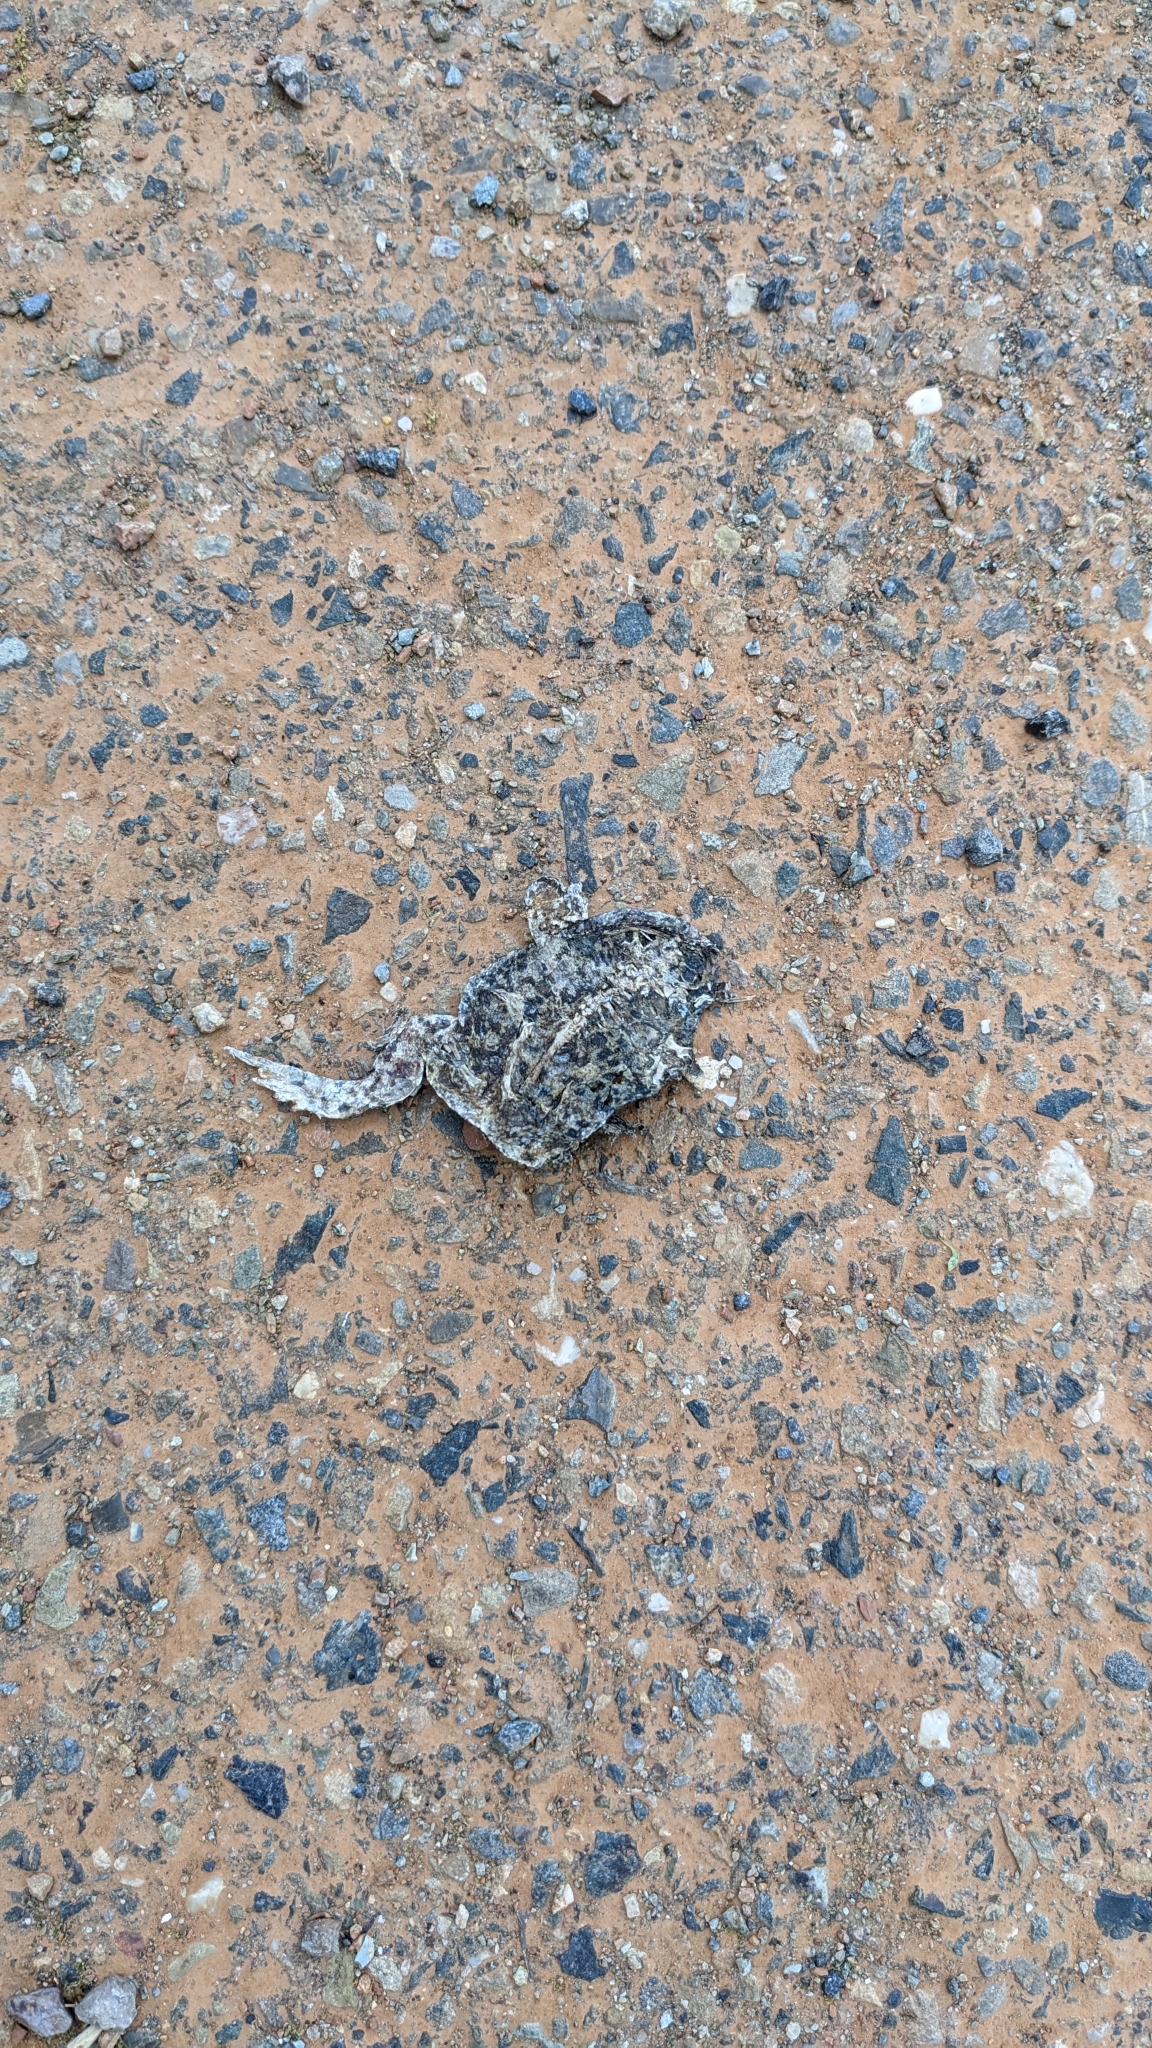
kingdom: Animalia
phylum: Chordata
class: Amphibia
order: Anura
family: Bufonidae
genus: Anaxyrus
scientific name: Anaxyrus boreas
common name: Western toad
